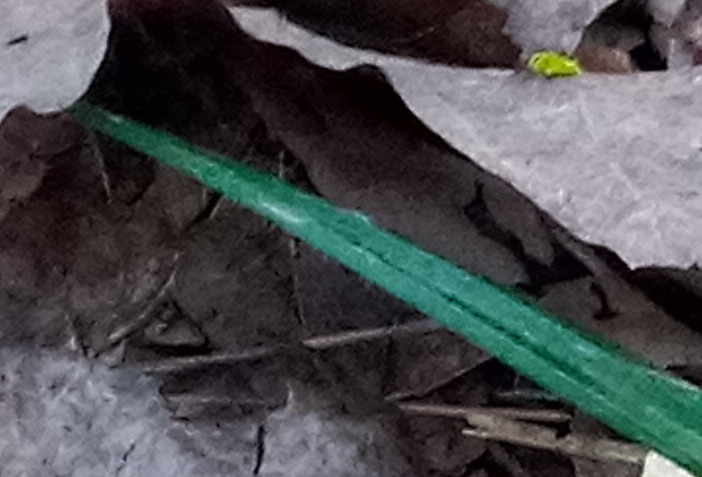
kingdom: Plantae
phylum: Tracheophyta
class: Liliopsida
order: Poales
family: Cyperaceae
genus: Carex
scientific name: Carex pilosa
